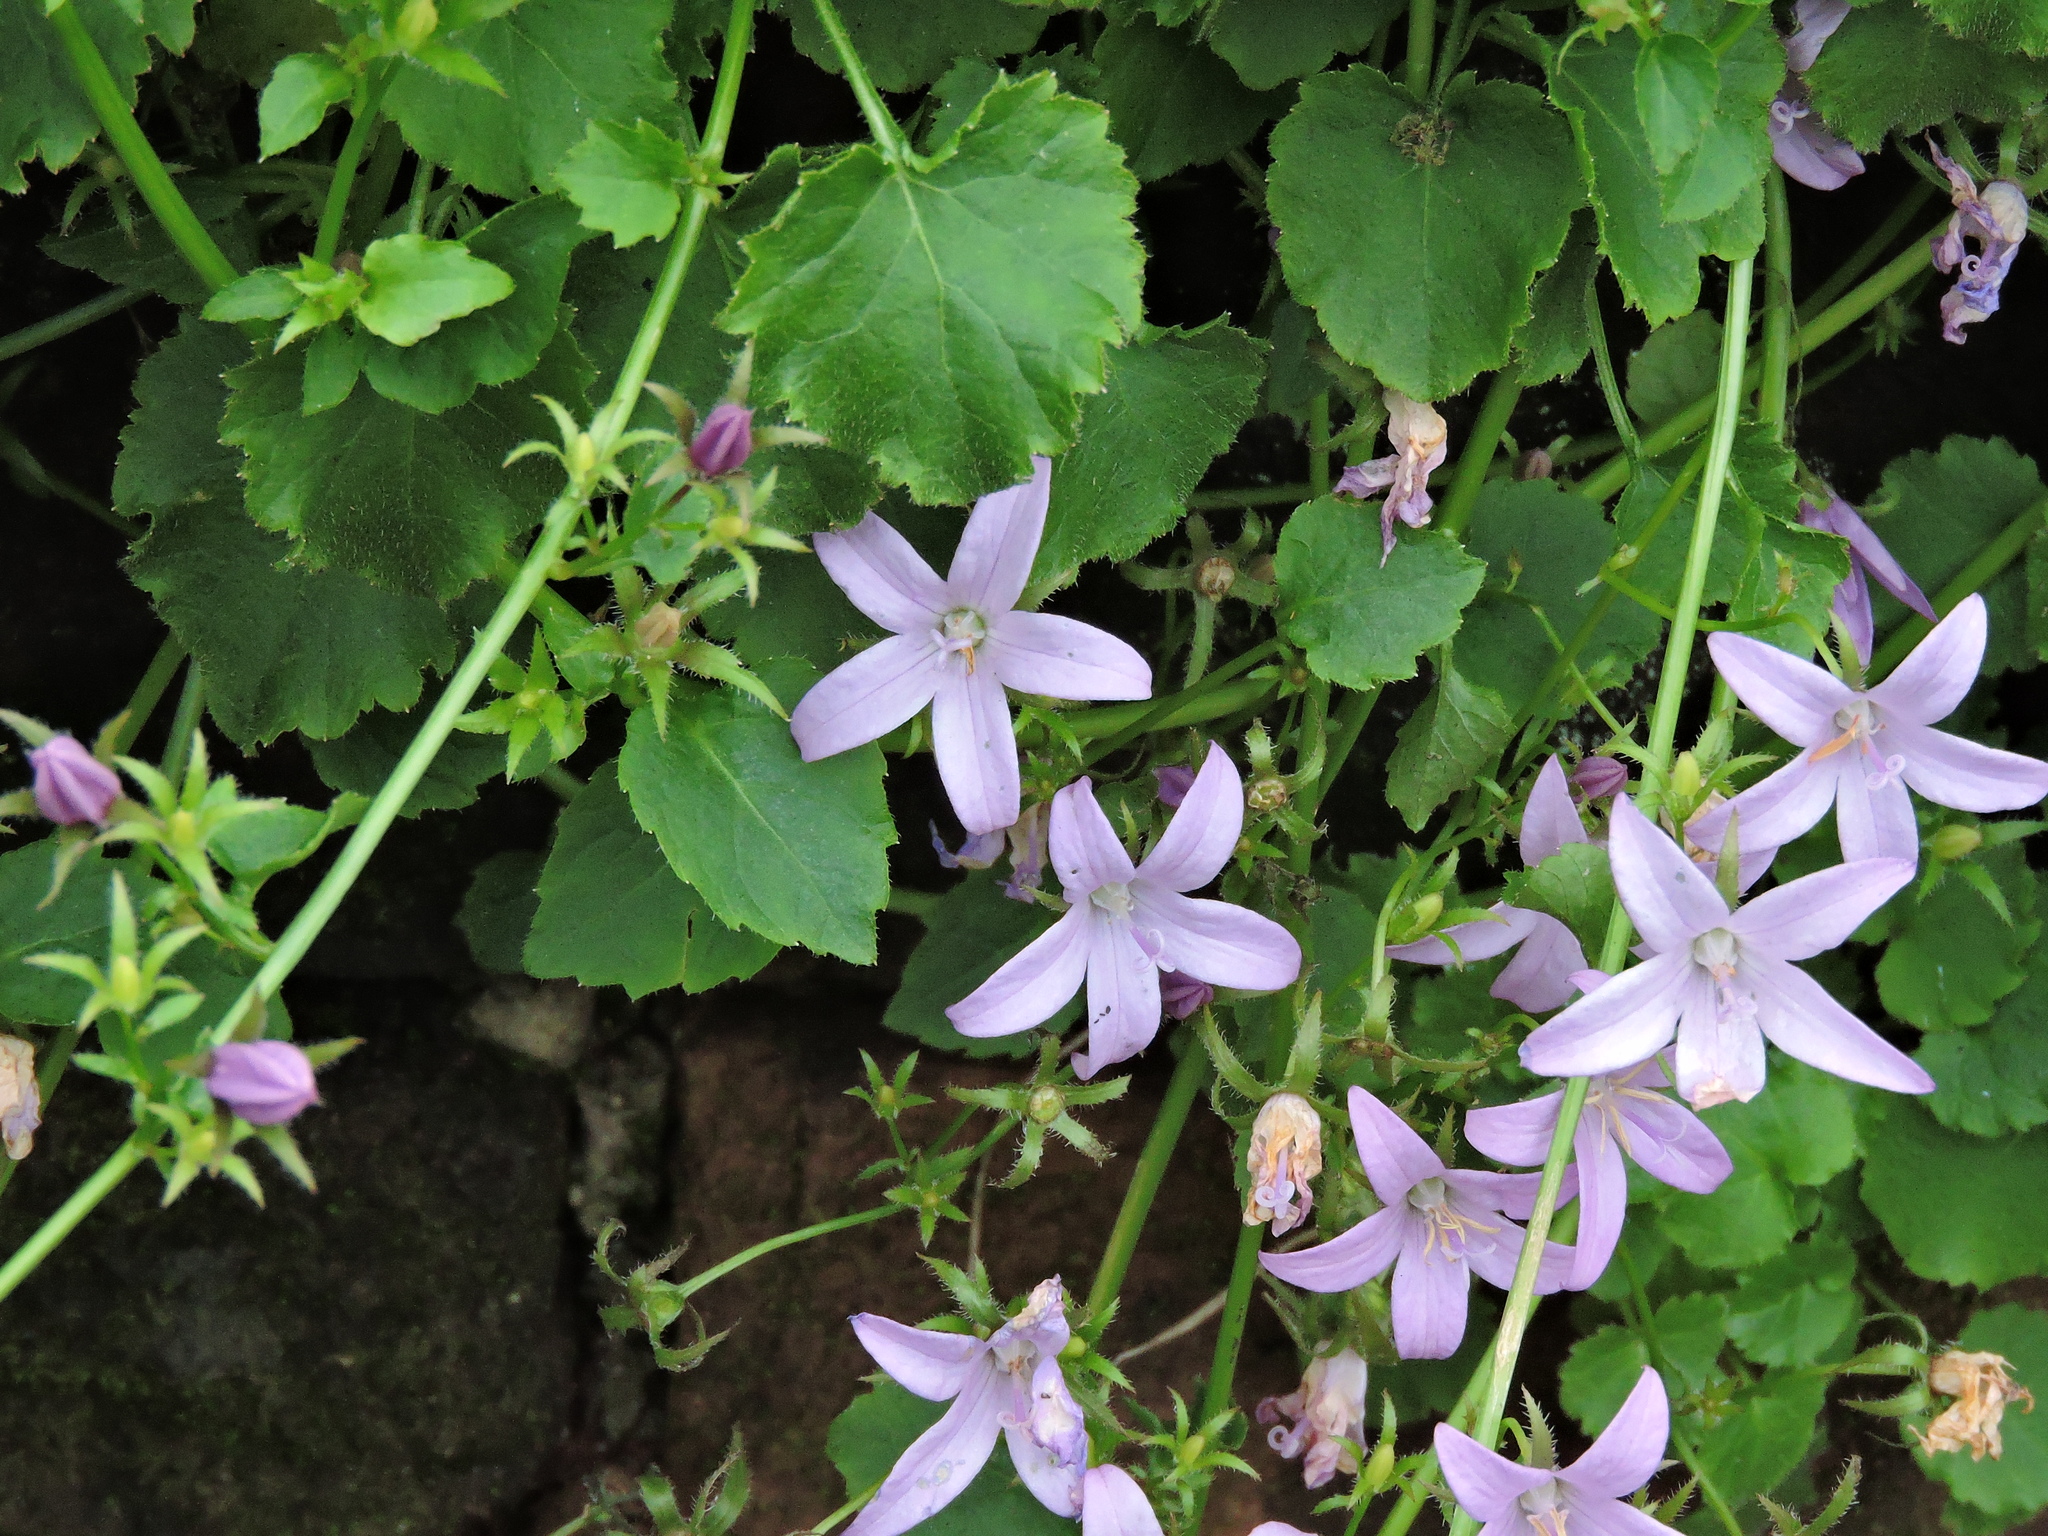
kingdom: Plantae
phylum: Tracheophyta
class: Magnoliopsida
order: Asterales
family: Campanulaceae
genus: Campanula
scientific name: Campanula poscharskyana
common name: Trailing bellflower
